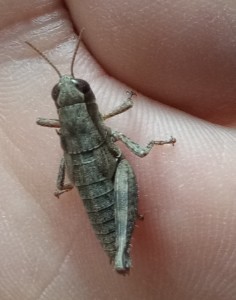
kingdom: Animalia
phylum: Arthropoda
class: Insecta
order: Orthoptera
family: Acrididae
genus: Pezotettix
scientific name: Pezotettix giornae
